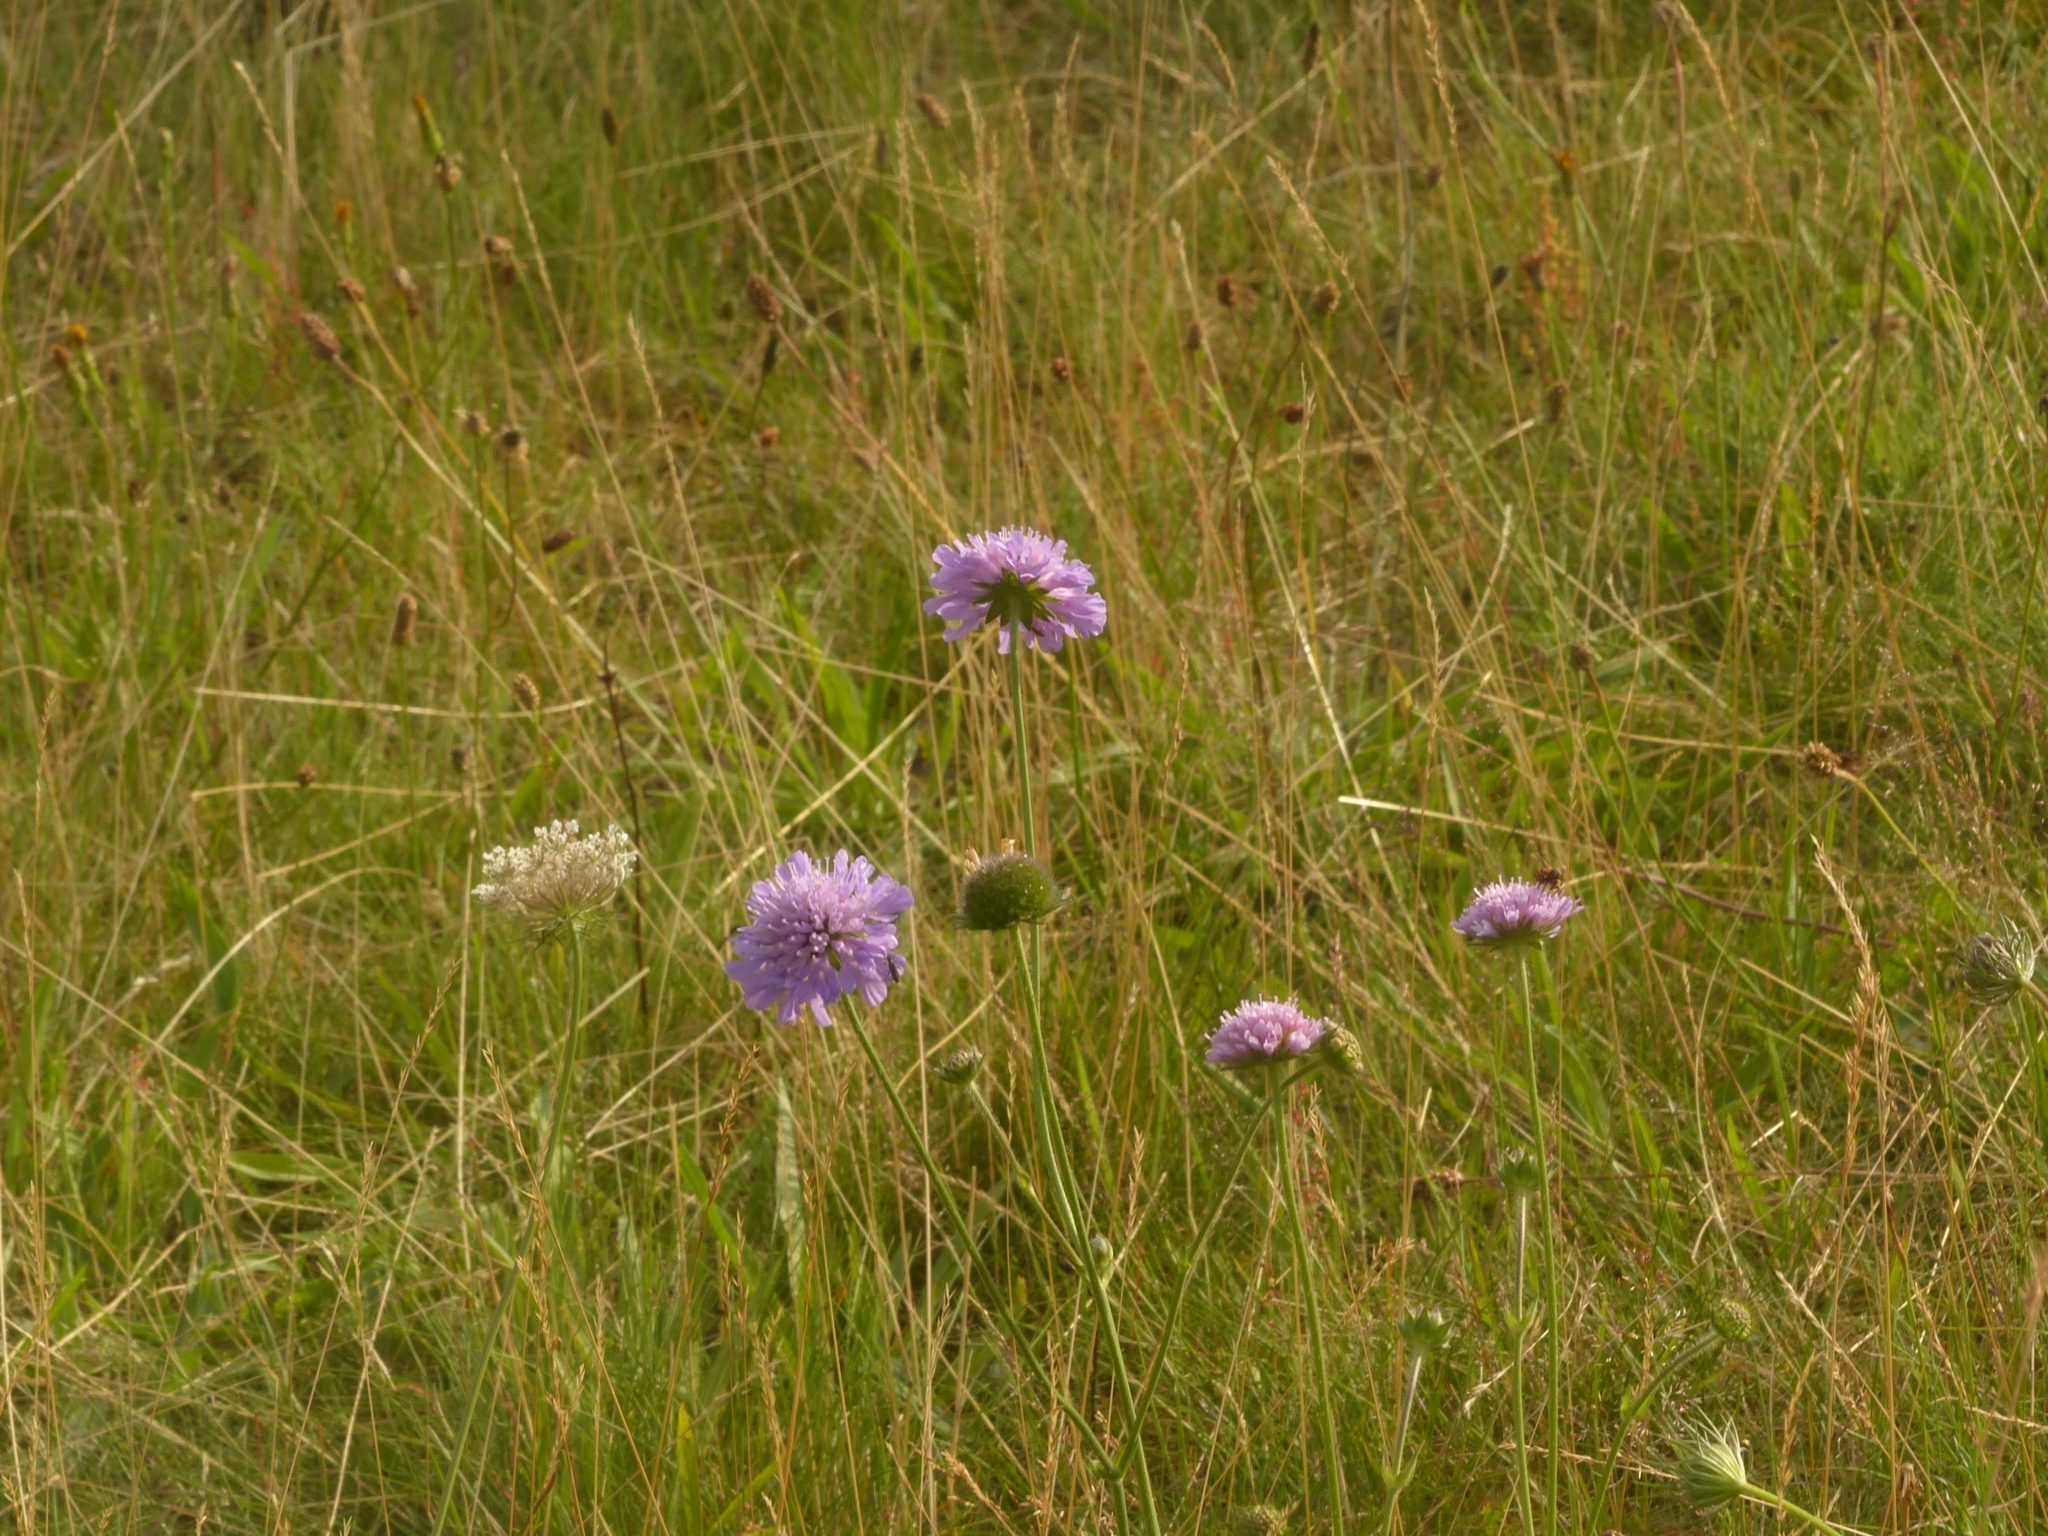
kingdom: Plantae
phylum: Tracheophyta
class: Magnoliopsida
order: Dipsacales
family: Caprifoliaceae
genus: Knautia
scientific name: Knautia arvensis
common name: Field scabiosa
